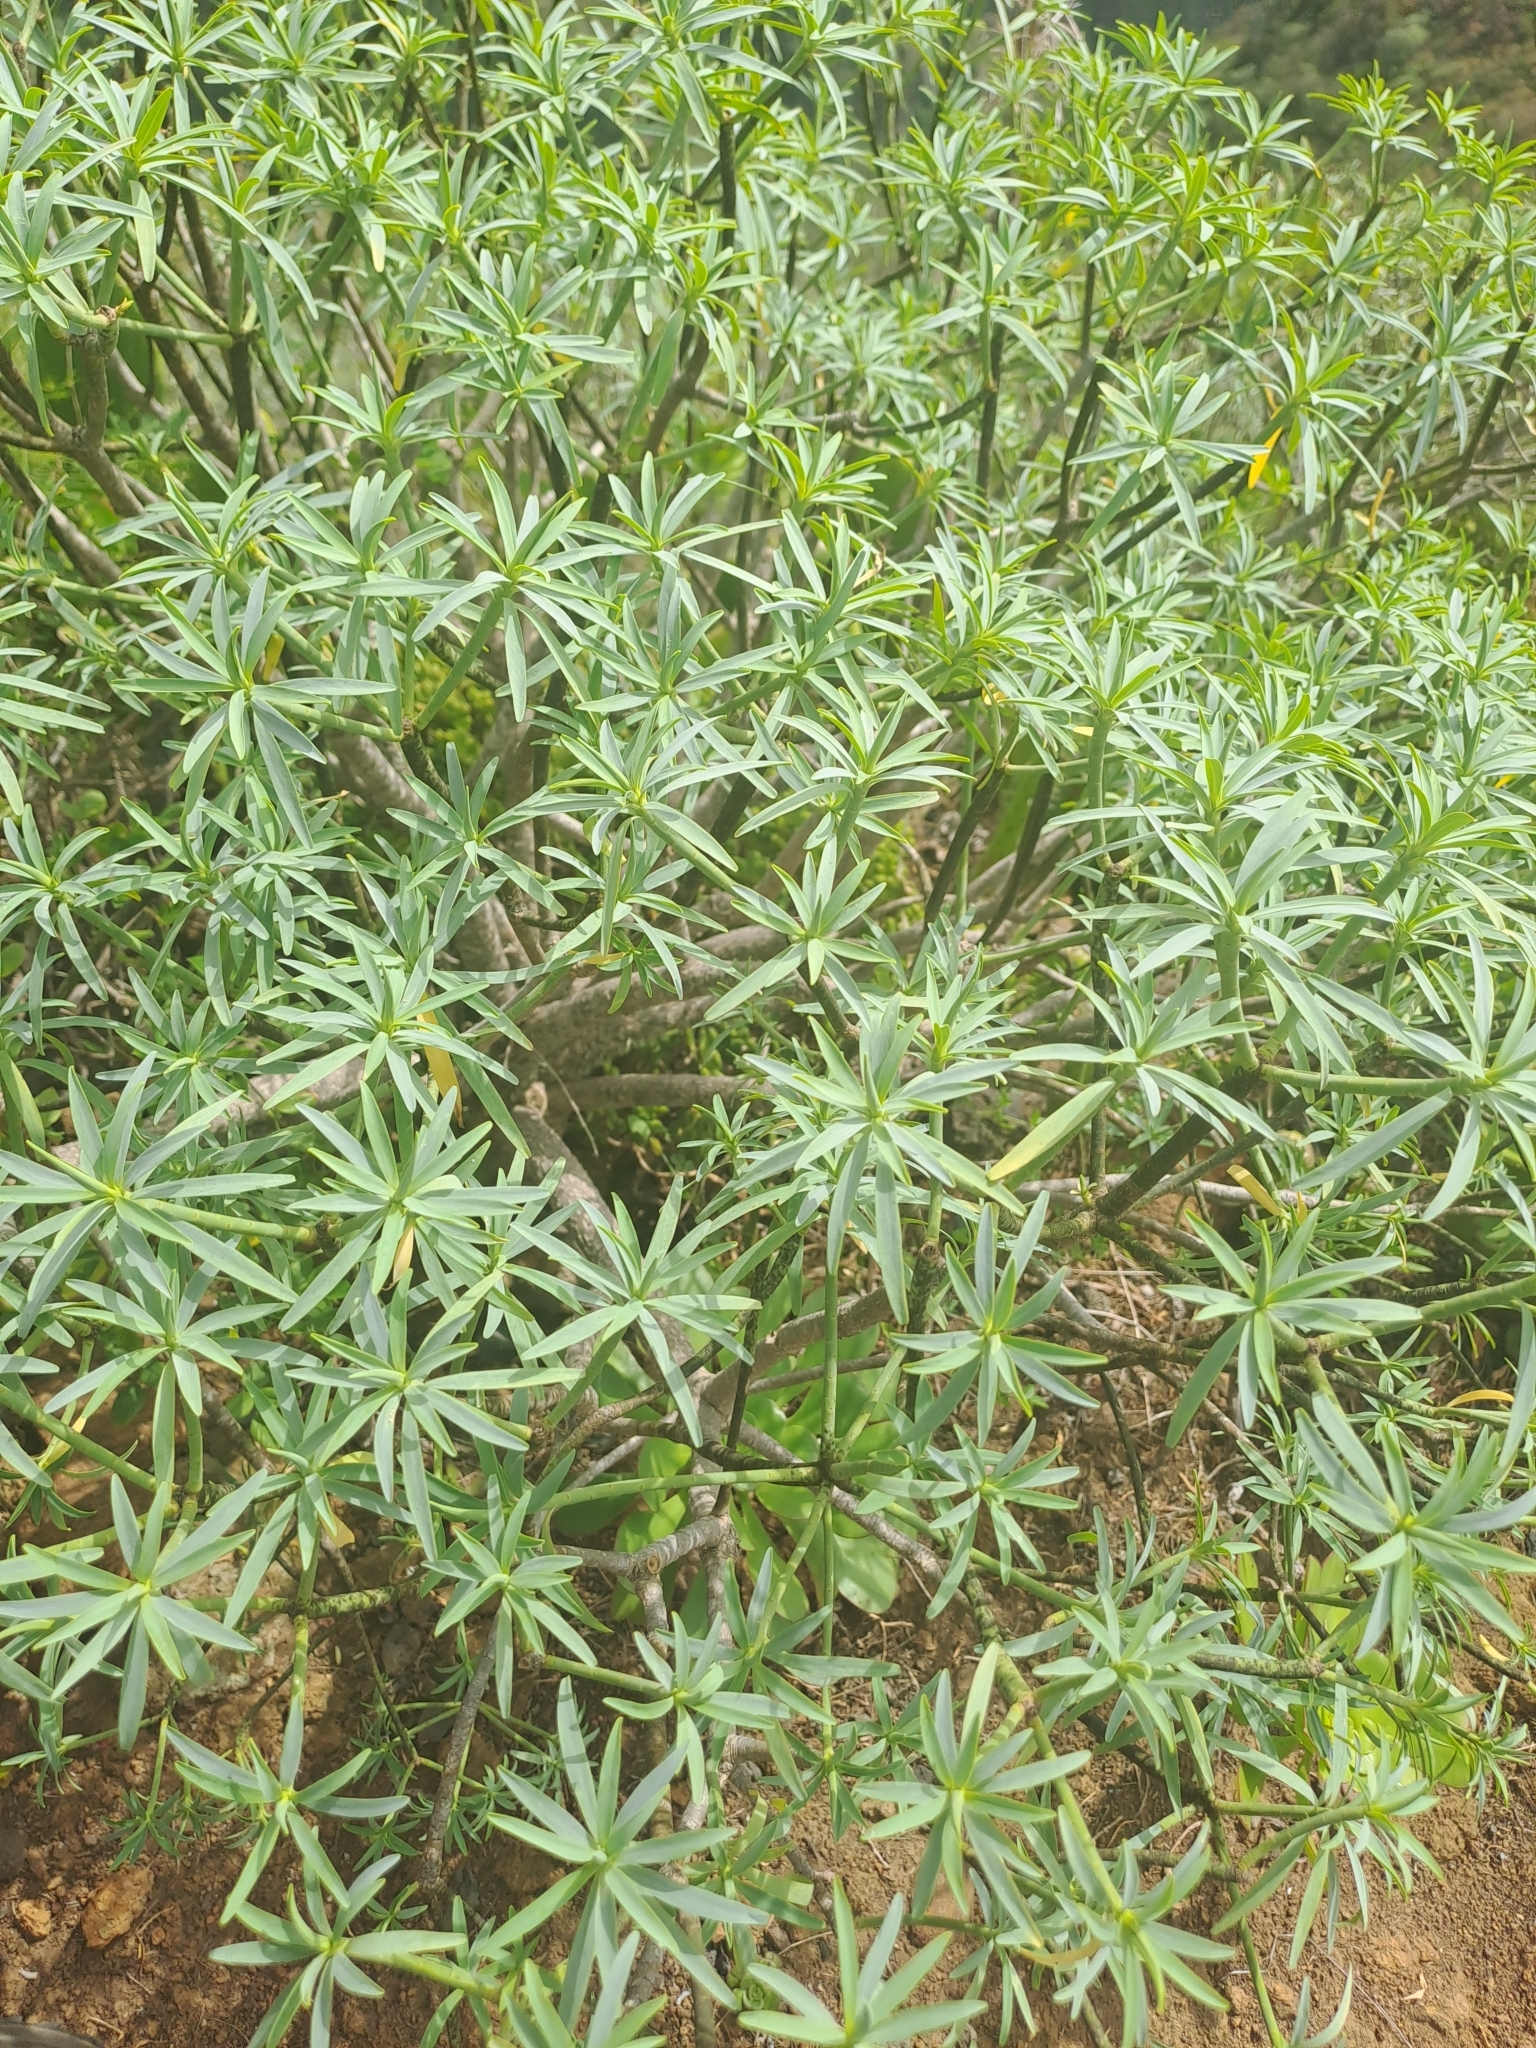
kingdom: Plantae
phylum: Tracheophyta
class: Magnoliopsida
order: Malpighiales
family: Euphorbiaceae
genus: Euphorbia
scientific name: Euphorbia lamarckii
